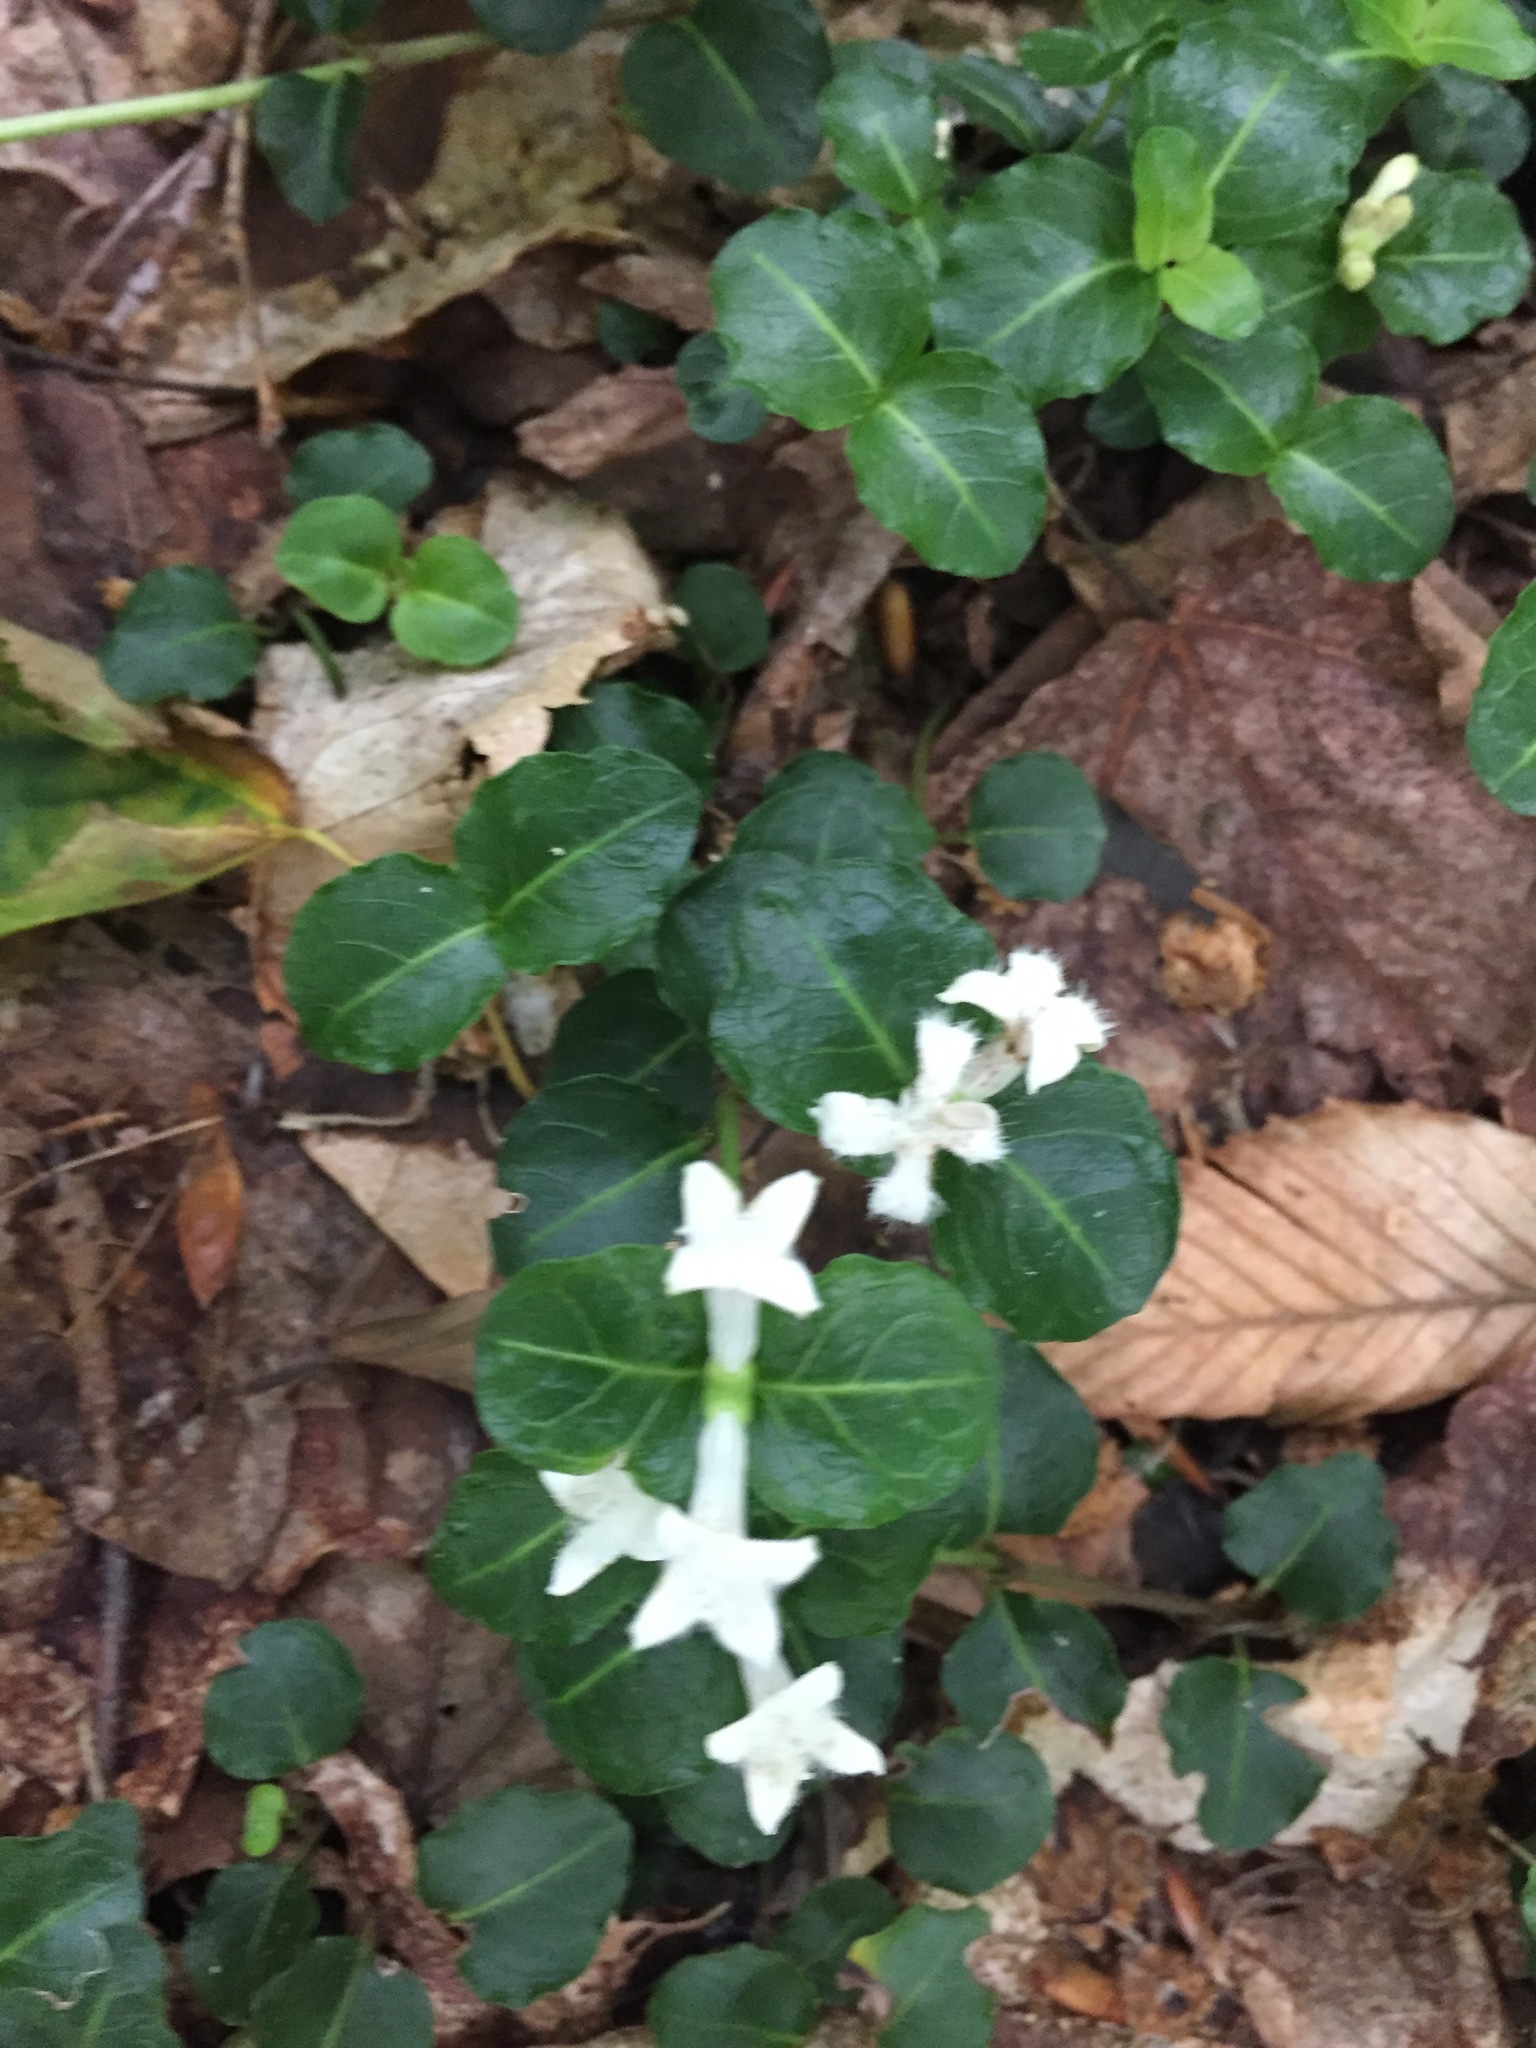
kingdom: Plantae
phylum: Tracheophyta
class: Magnoliopsida
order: Gentianales
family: Rubiaceae
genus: Mitchella
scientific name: Mitchella repens
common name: Partridge-berry
